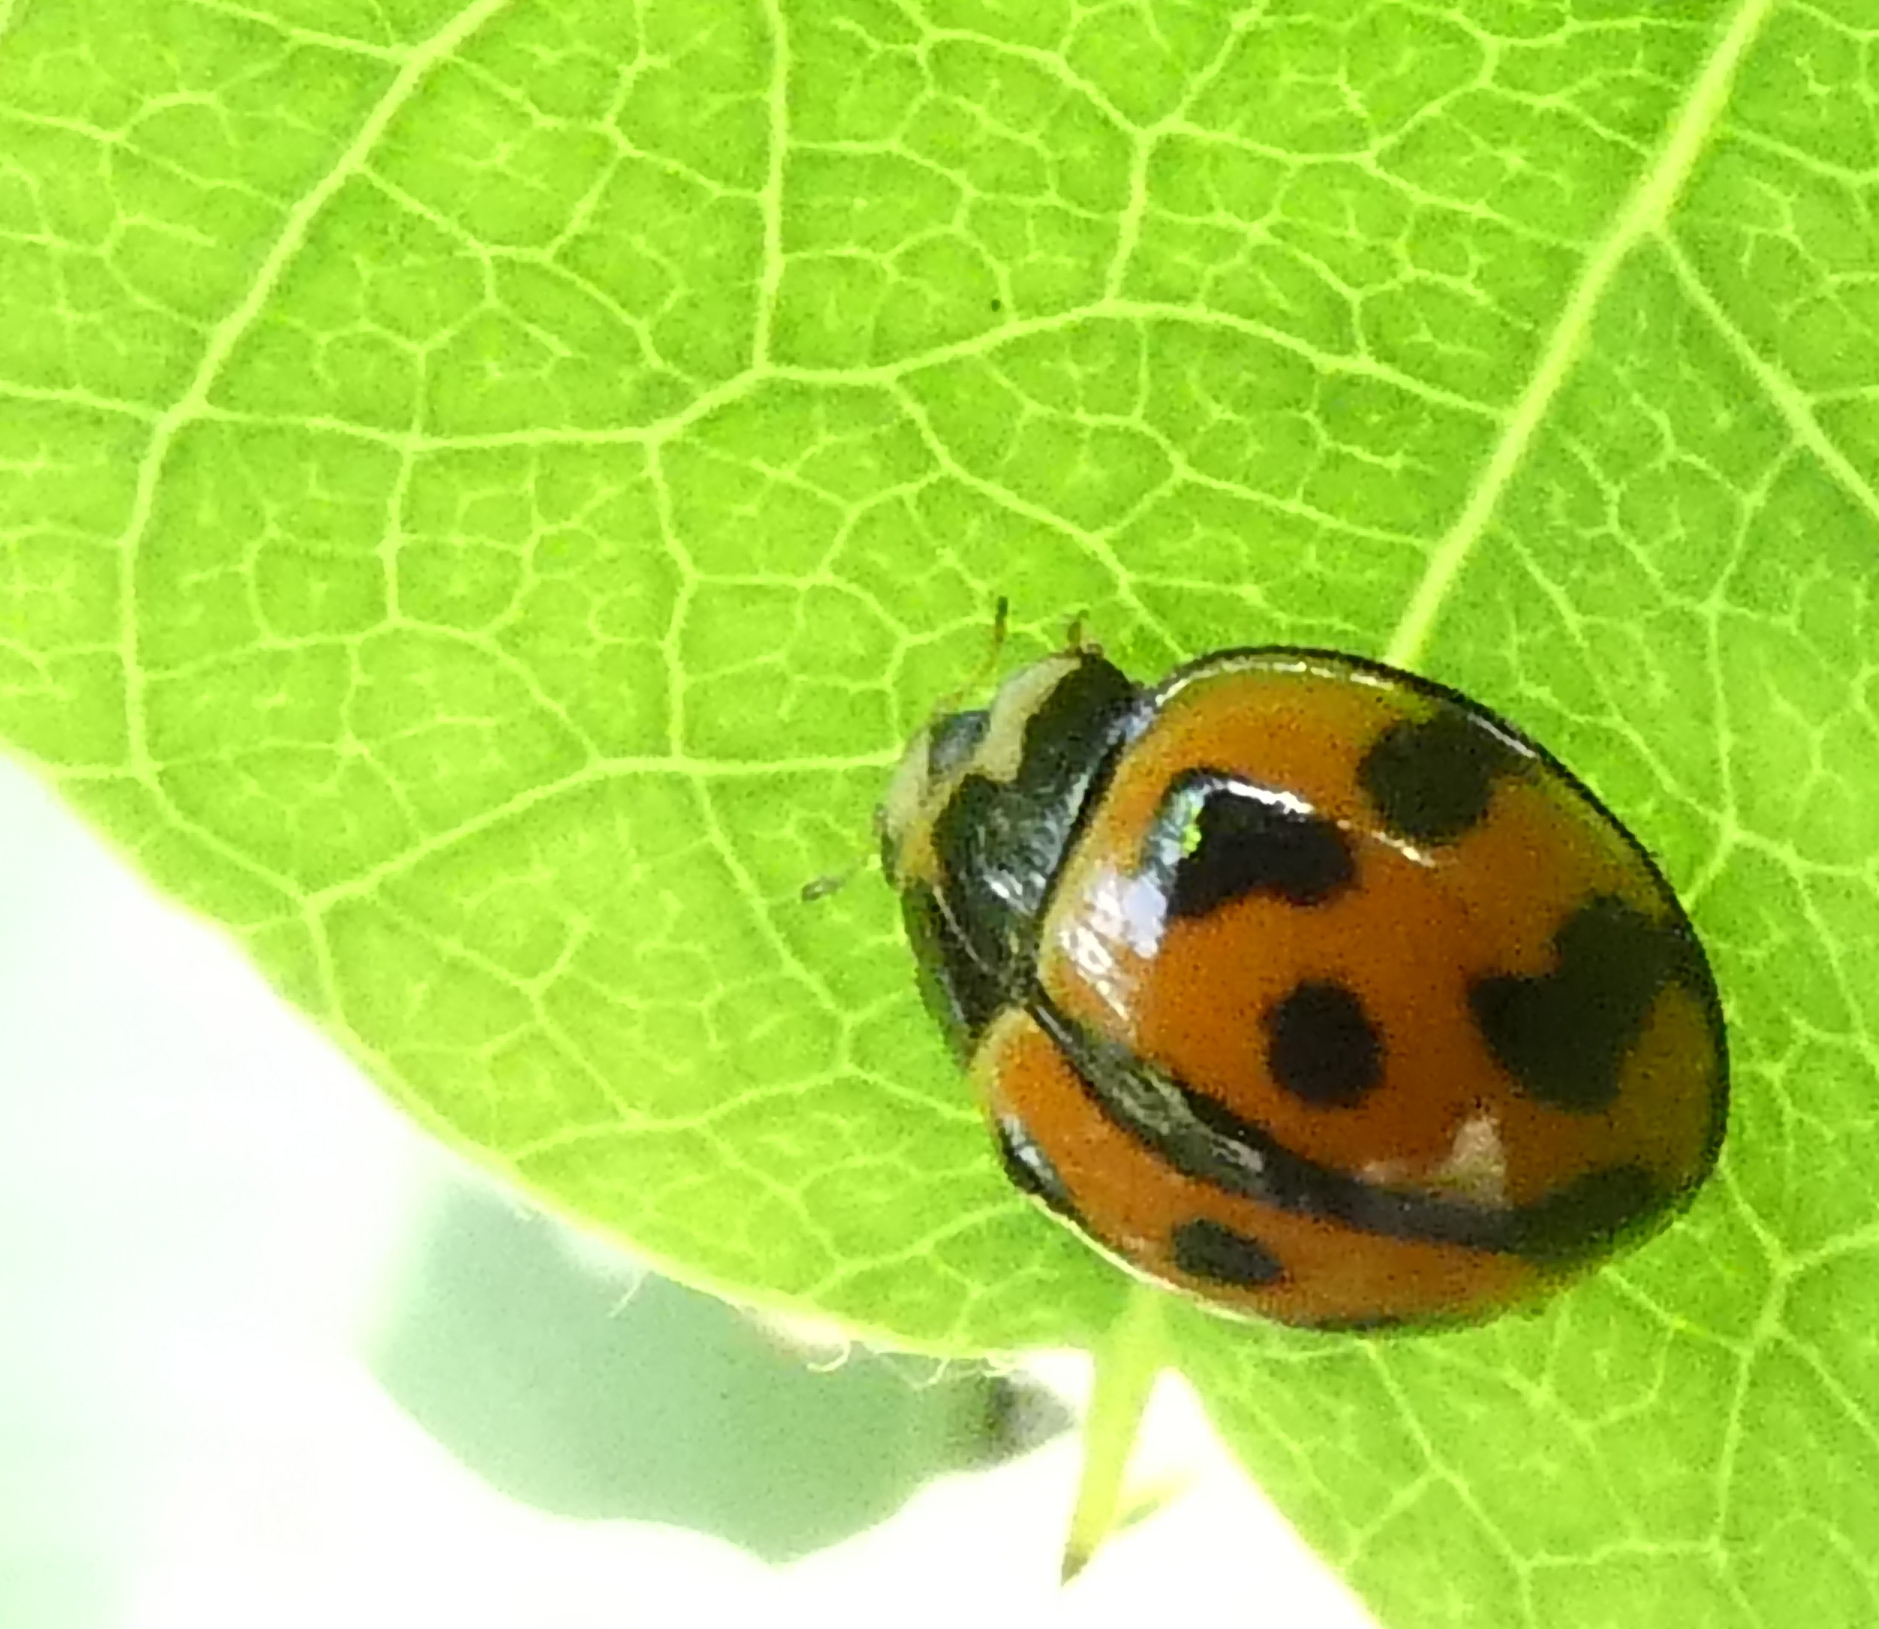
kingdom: Animalia
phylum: Arthropoda
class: Insecta
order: Coleoptera
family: Coccinellidae
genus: Coelophora
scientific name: Coelophora inaequalis
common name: Common australian lady beetle
